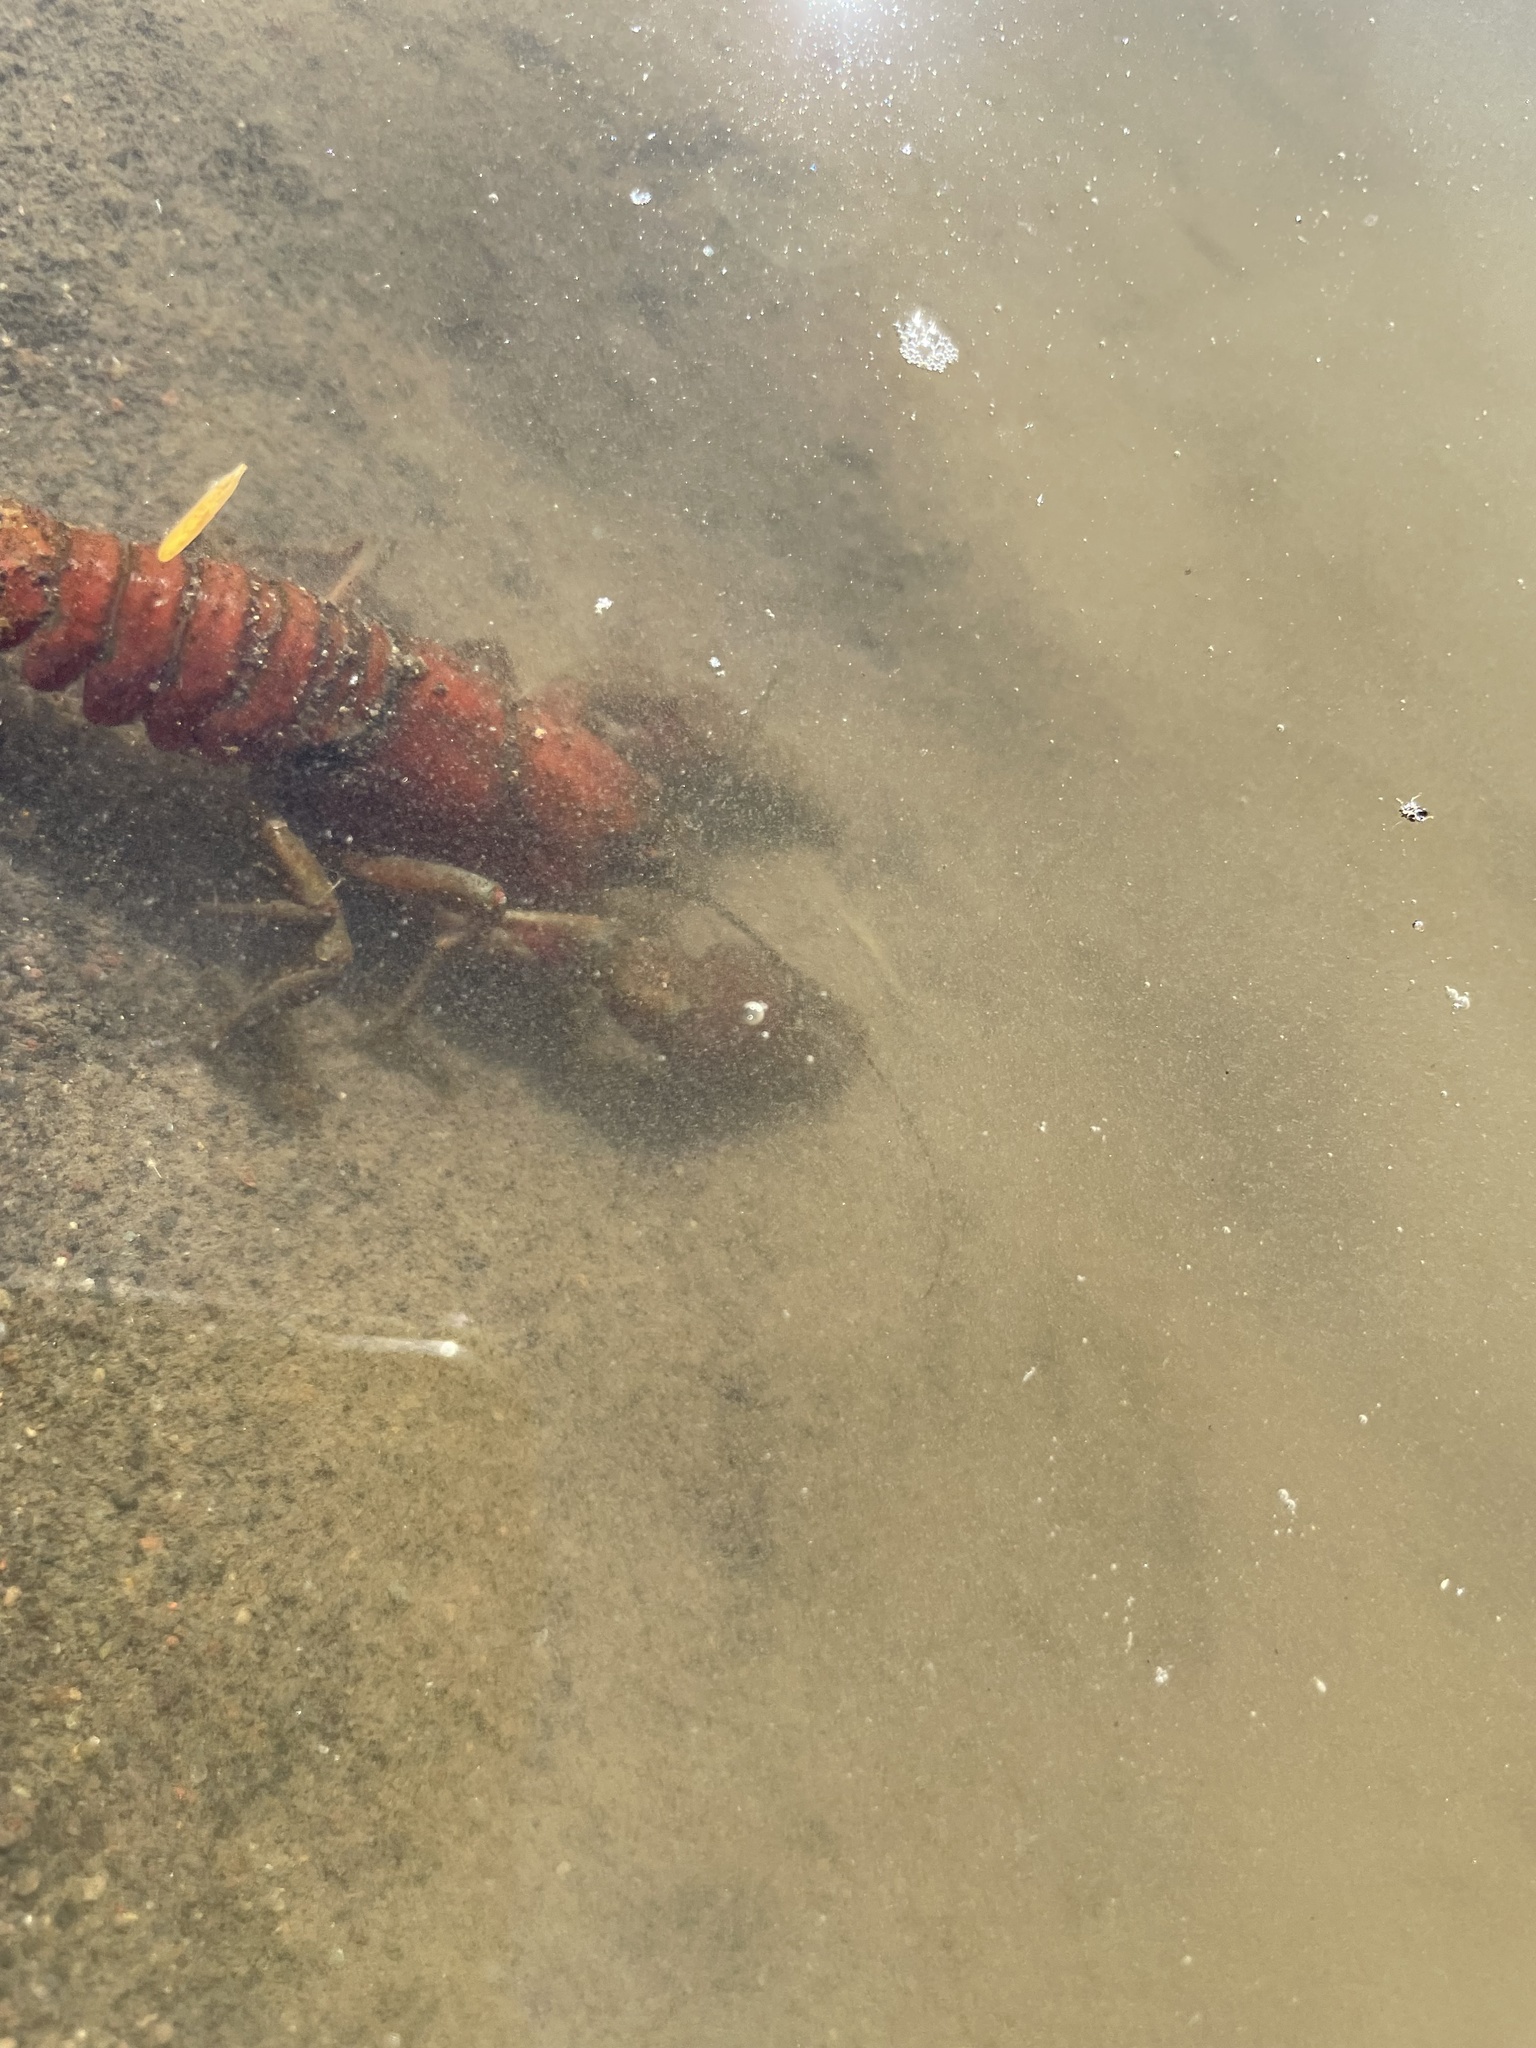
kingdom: Animalia
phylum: Arthropoda
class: Malacostraca
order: Decapoda
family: Astacidae
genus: Pacifastacus
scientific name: Pacifastacus leniusculus
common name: Signal crayfish
